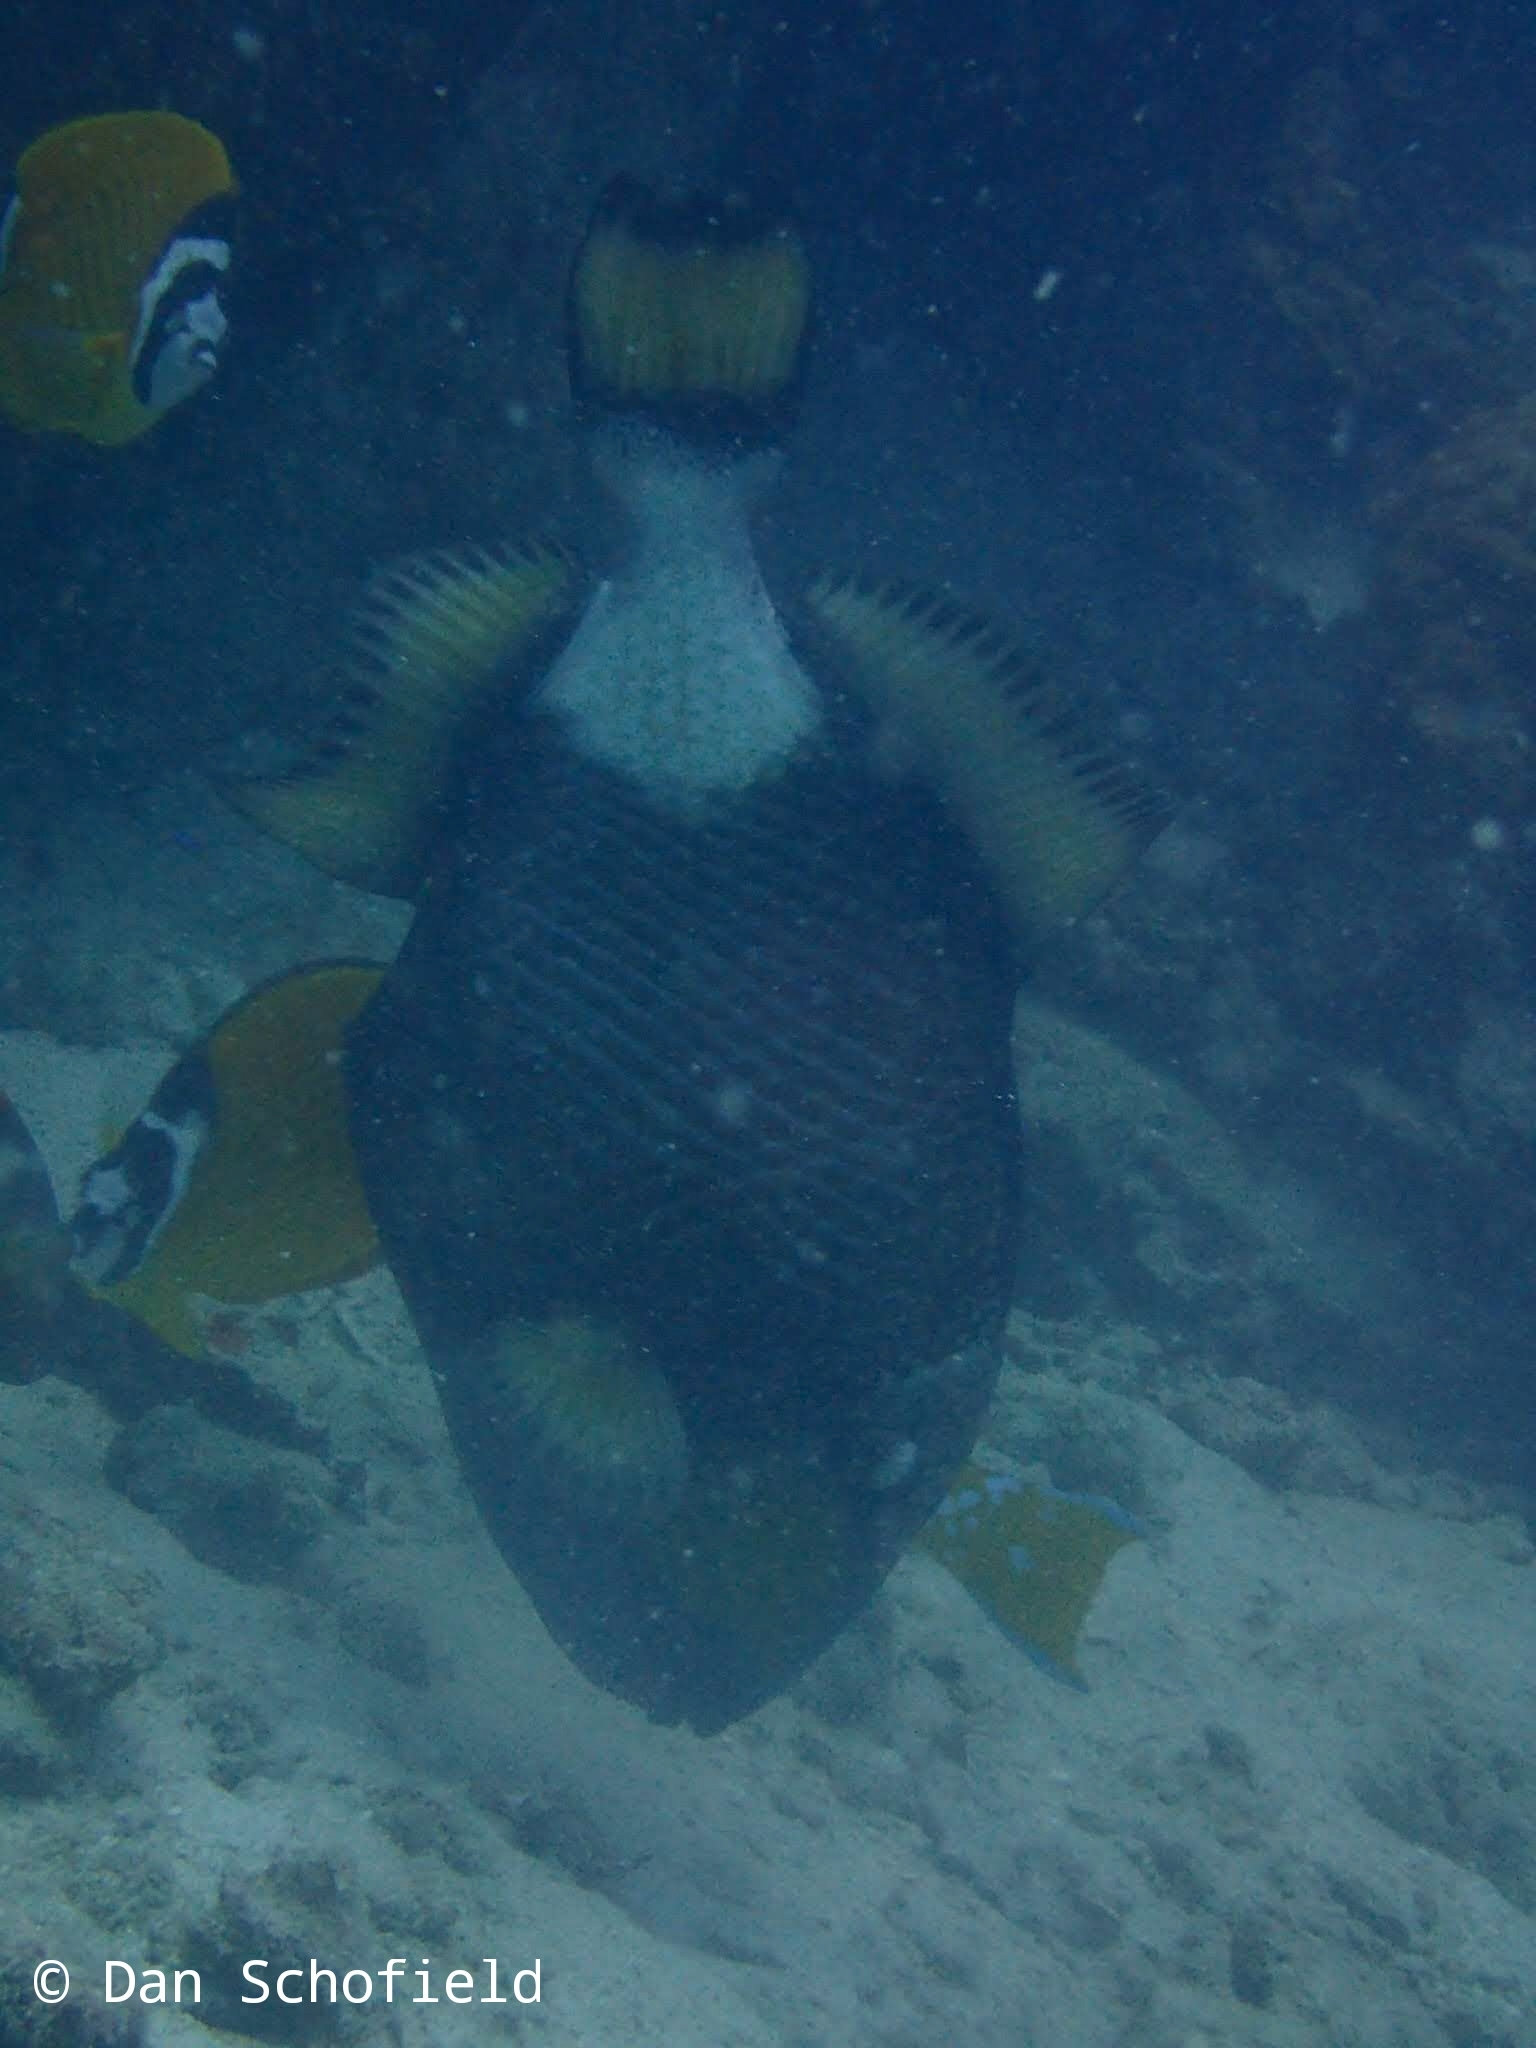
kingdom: Animalia
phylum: Chordata
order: Tetraodontiformes
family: Balistidae
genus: Balistoides
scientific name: Balistoides viridescens
